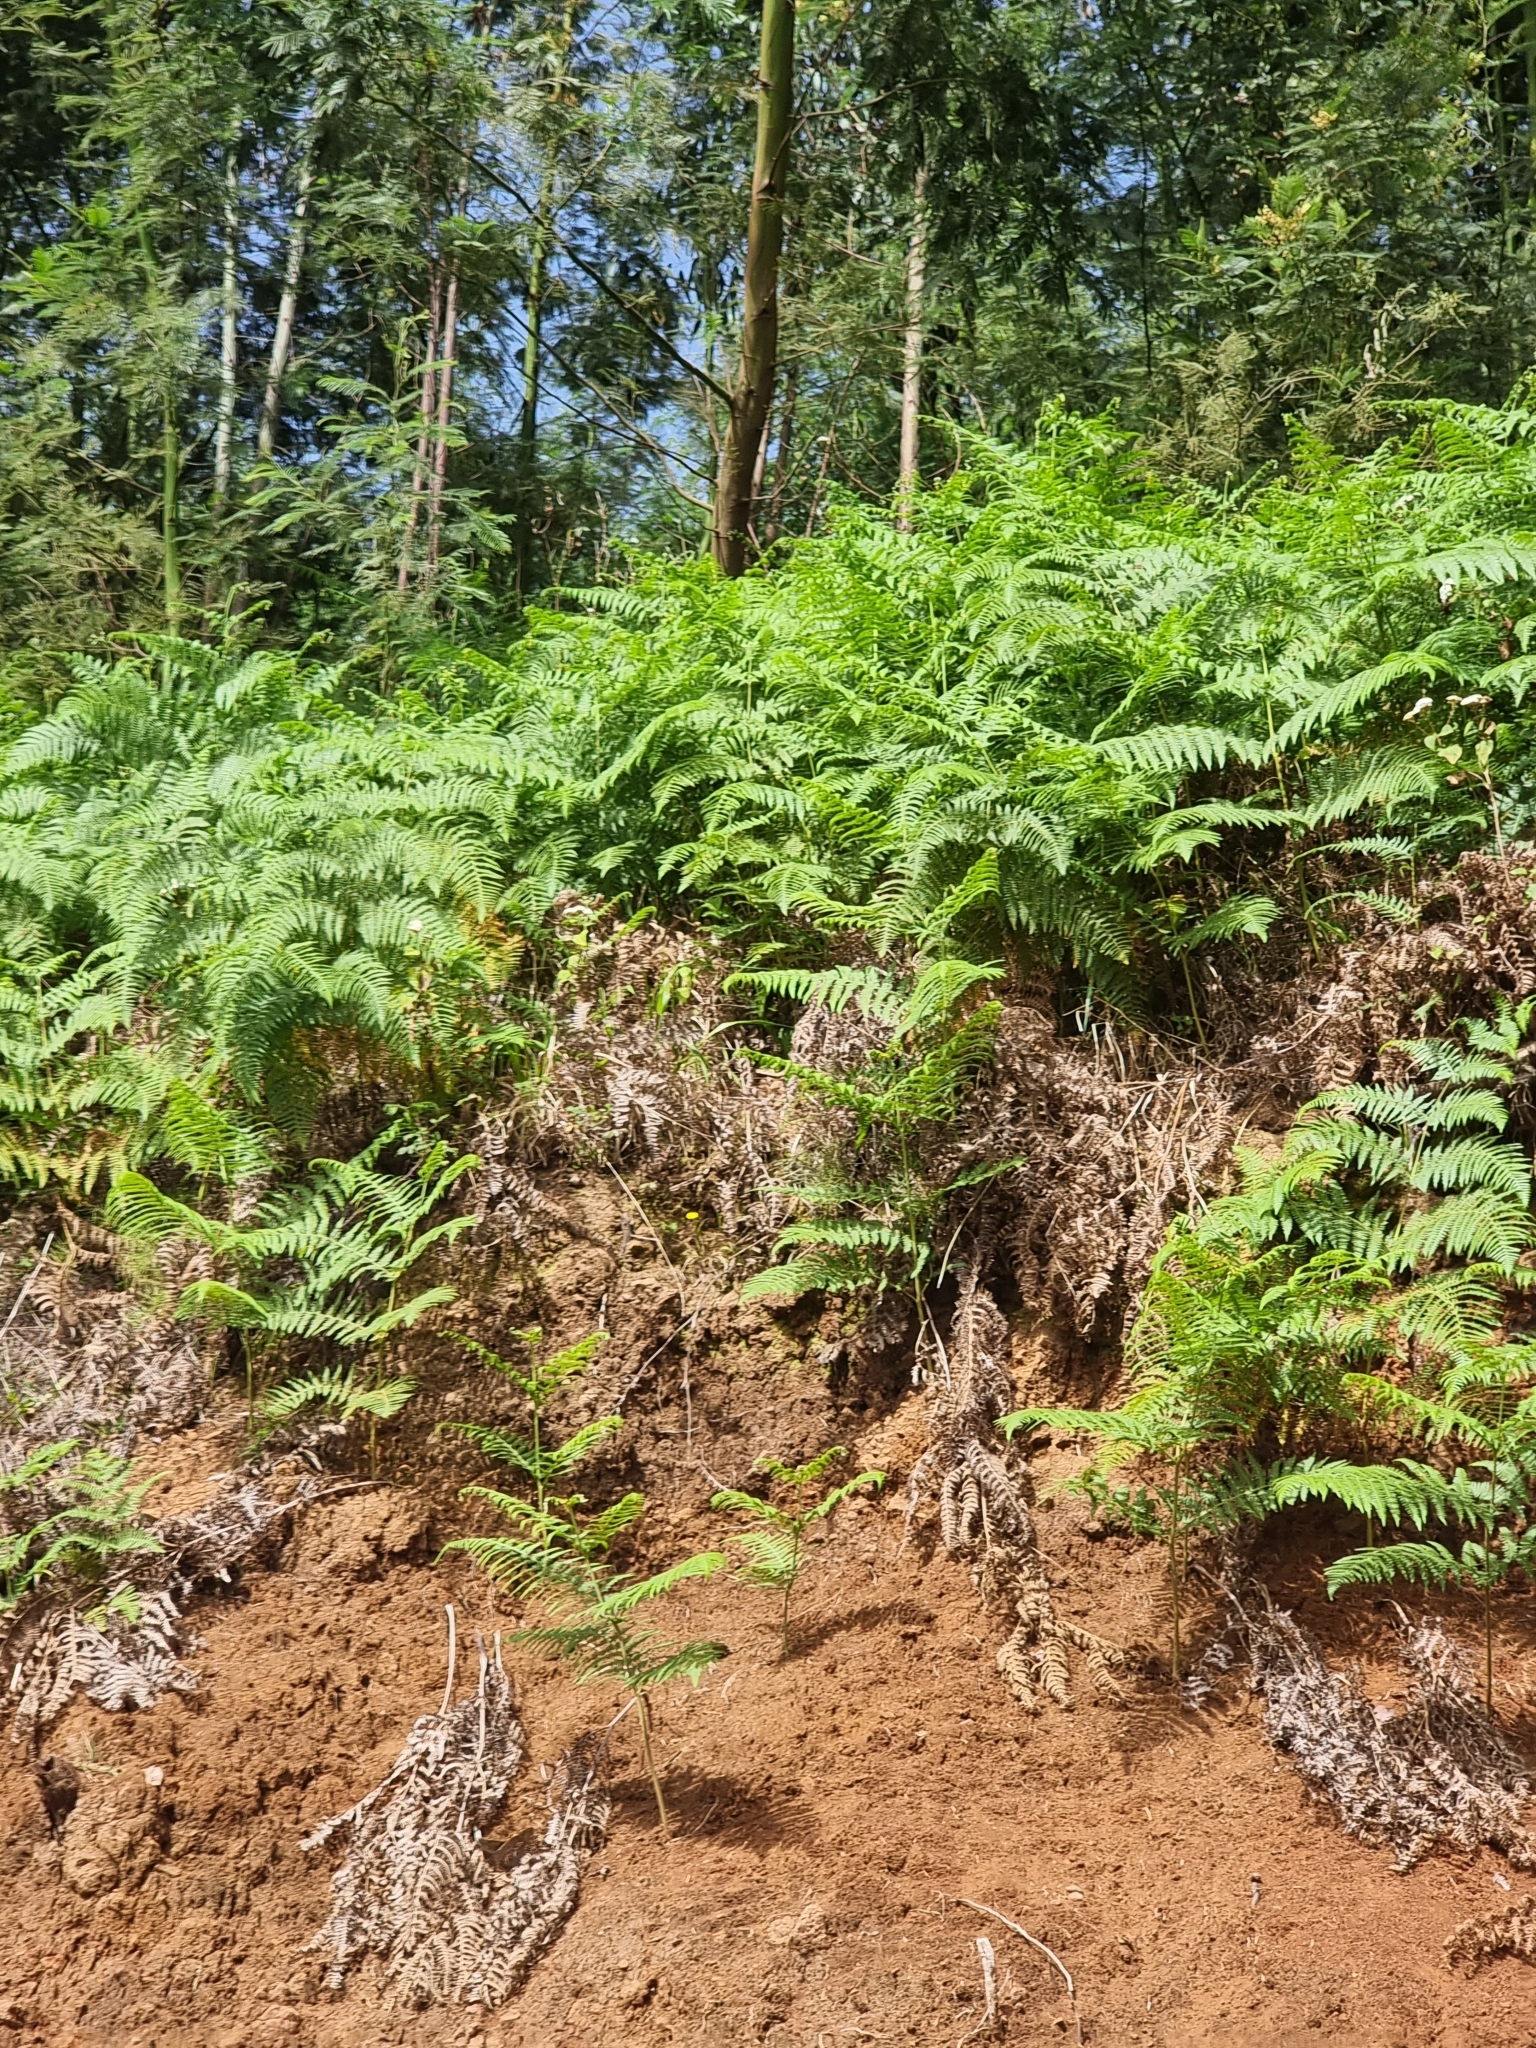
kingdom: Plantae
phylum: Tracheophyta
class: Polypodiopsida
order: Polypodiales
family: Dennstaedtiaceae
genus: Pteridium
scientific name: Pteridium aquilinum
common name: Bracken
